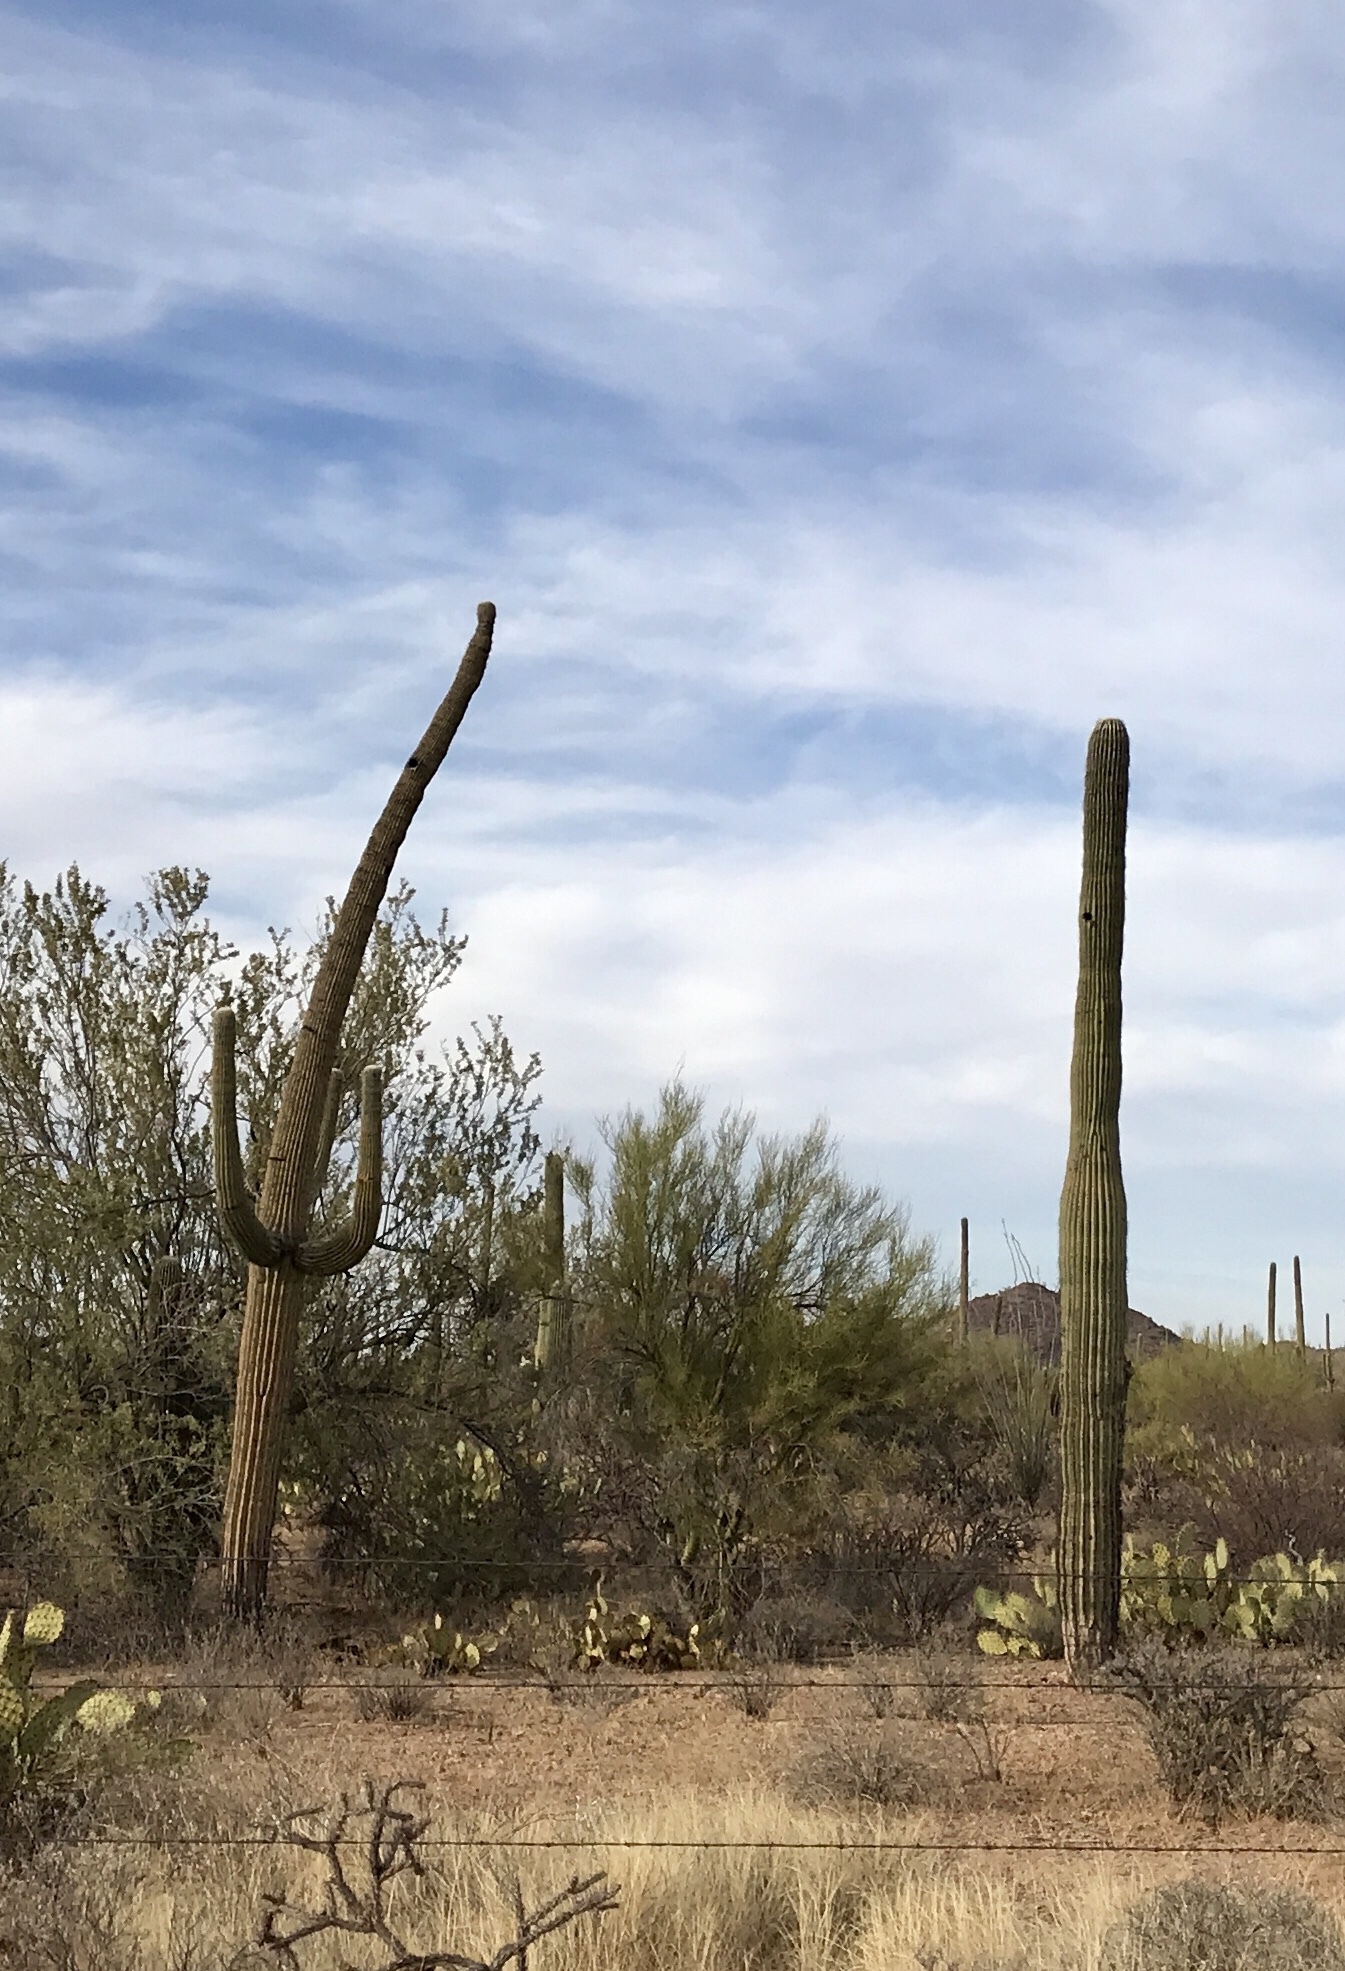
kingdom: Plantae
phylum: Tracheophyta
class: Magnoliopsida
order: Caryophyllales
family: Cactaceae
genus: Carnegiea
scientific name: Carnegiea gigantea
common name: Saguaro
